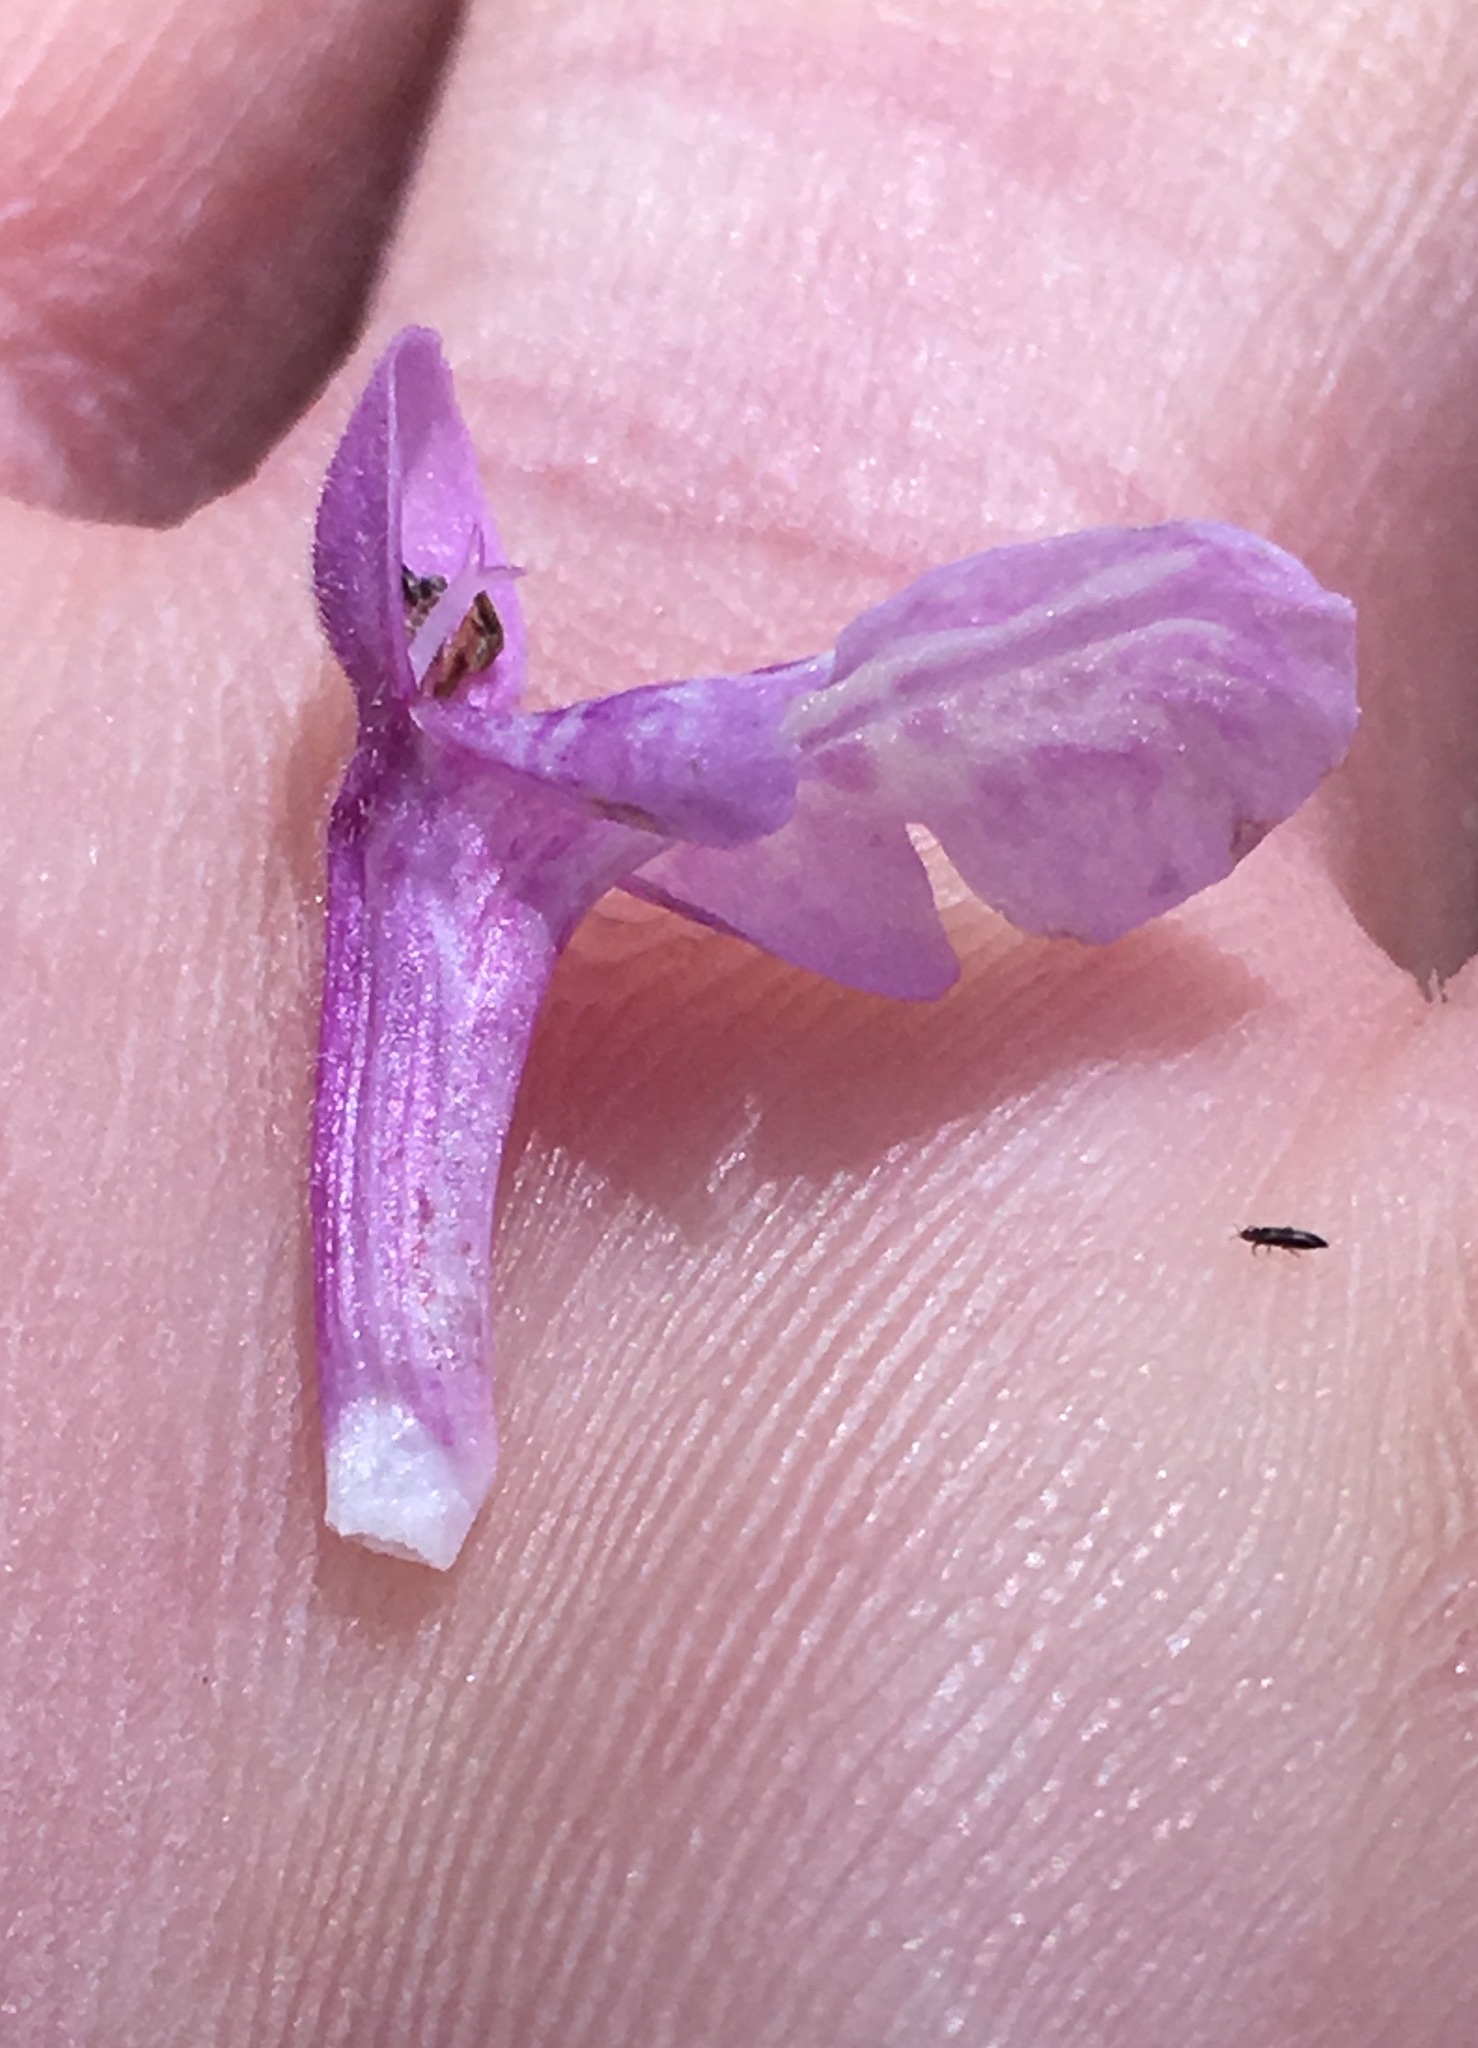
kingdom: Plantae
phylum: Tracheophyta
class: Magnoliopsida
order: Lamiales
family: Lamiaceae
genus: Stachys
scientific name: Stachys bullata
